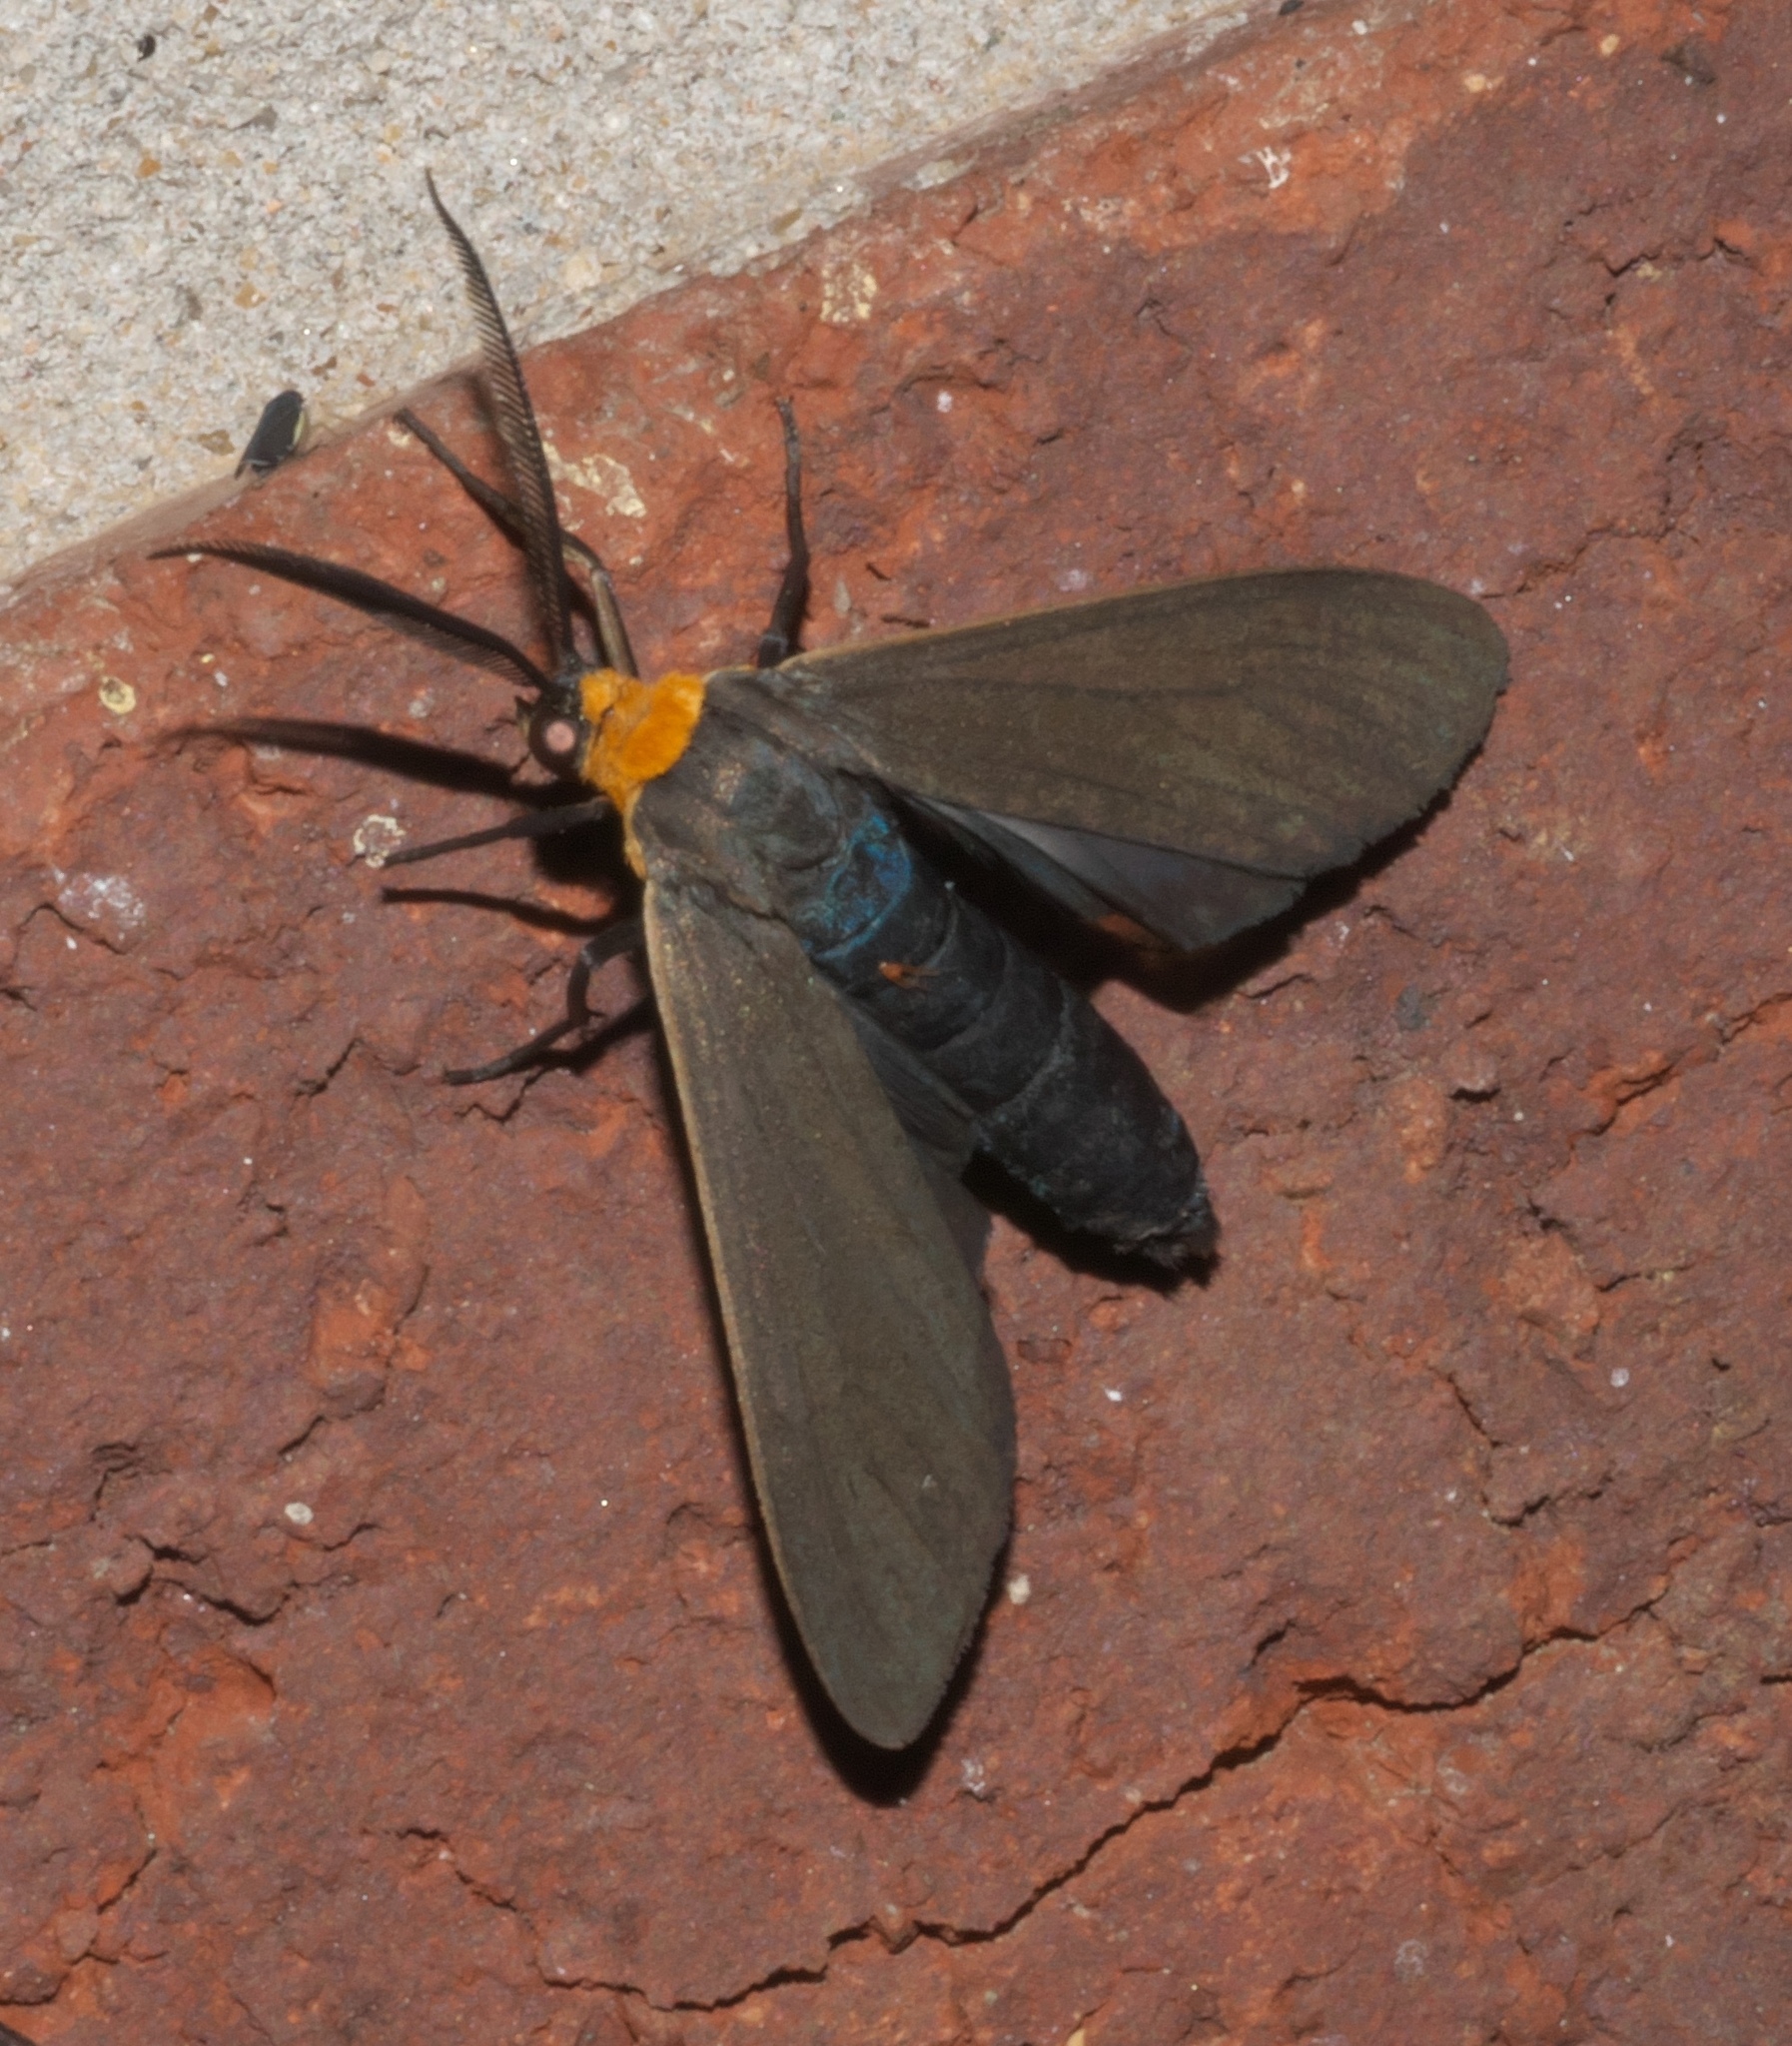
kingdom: Animalia
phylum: Arthropoda
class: Insecta
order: Lepidoptera
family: Erebidae
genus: Cisseps
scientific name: Cisseps fulvicollis
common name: Yellow-collared scape moth
